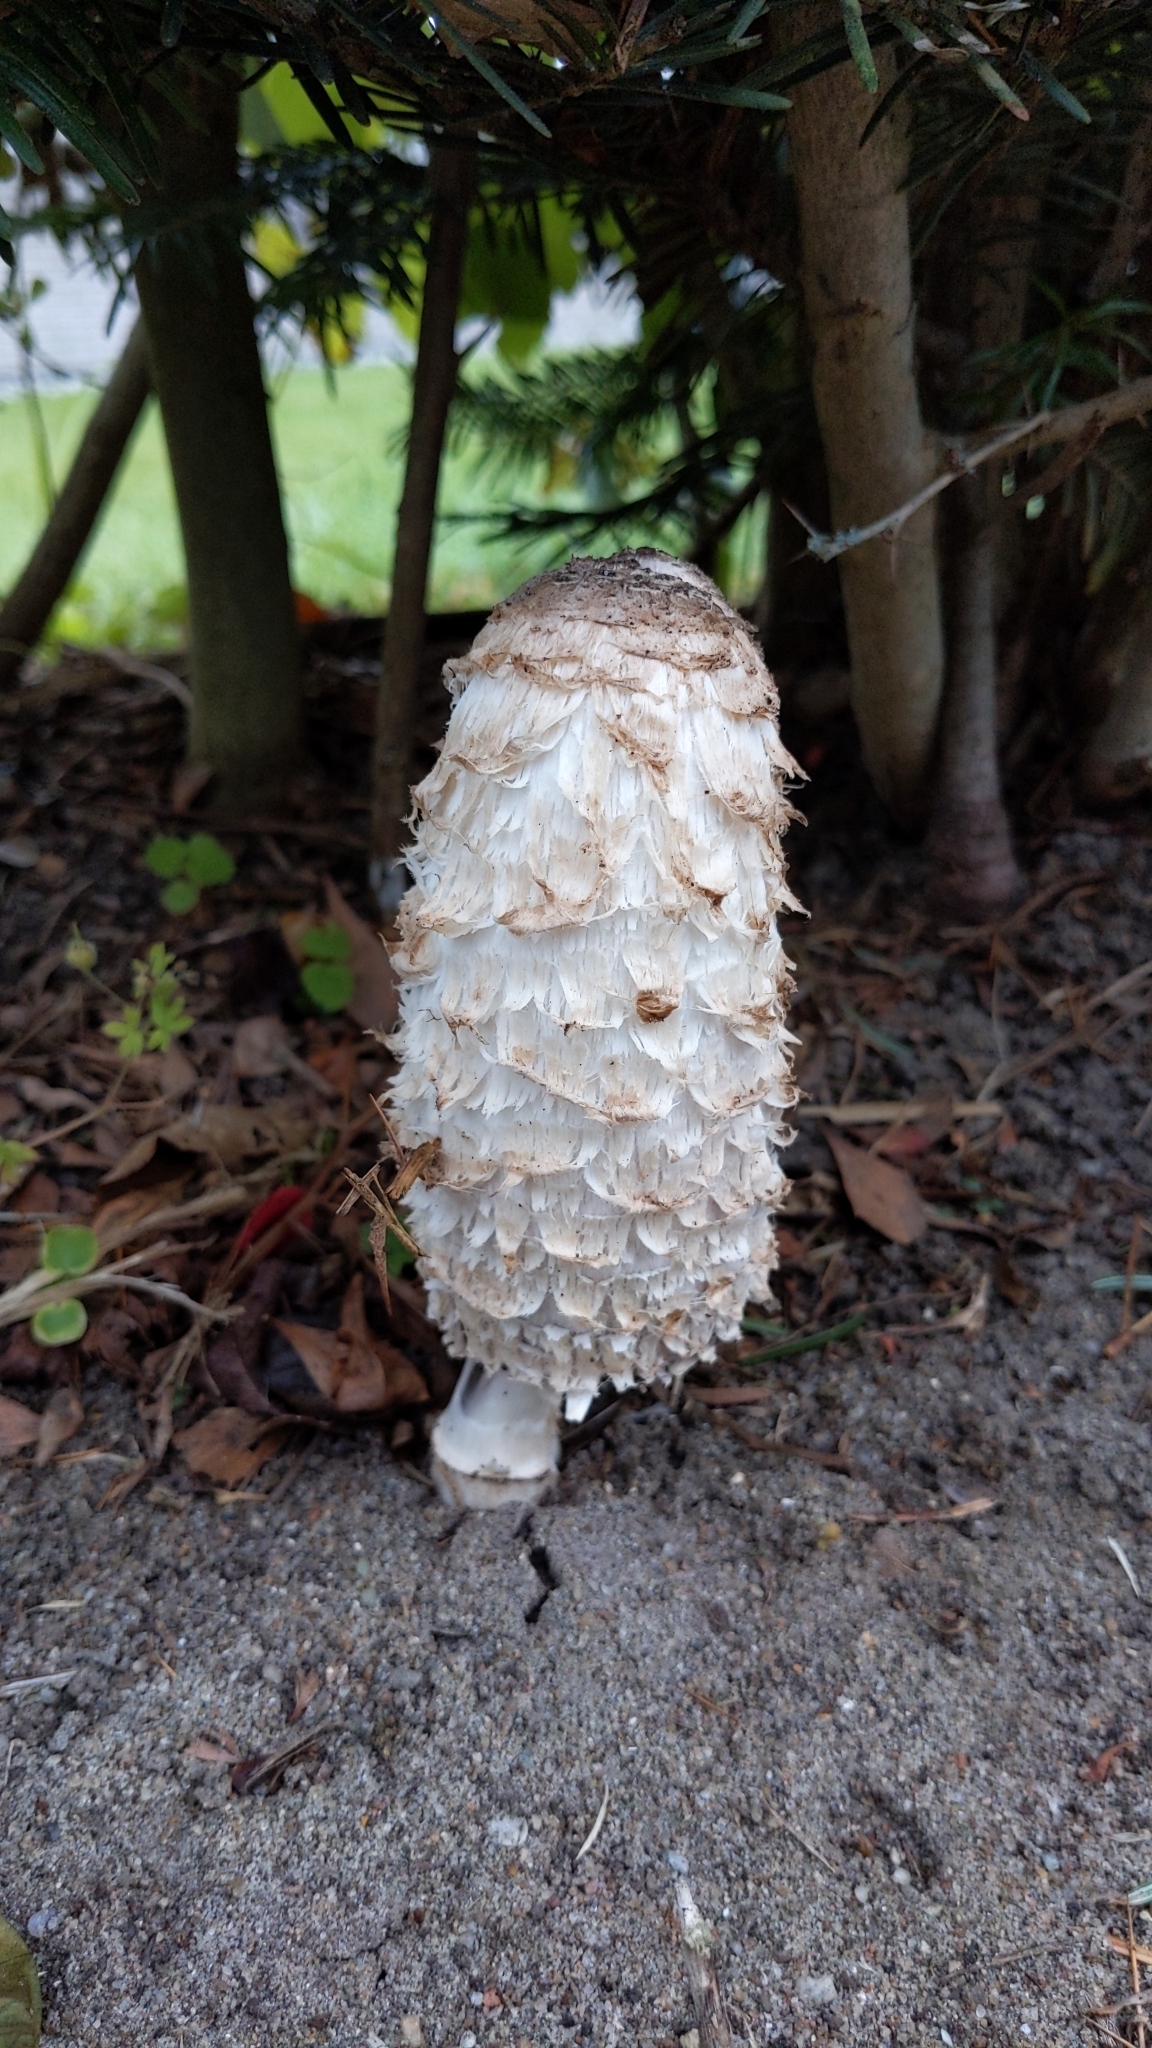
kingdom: Fungi
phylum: Basidiomycota
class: Agaricomycetes
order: Agaricales
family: Agaricaceae
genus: Coprinus
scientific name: Coprinus comatus
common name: Lawyer's wig
